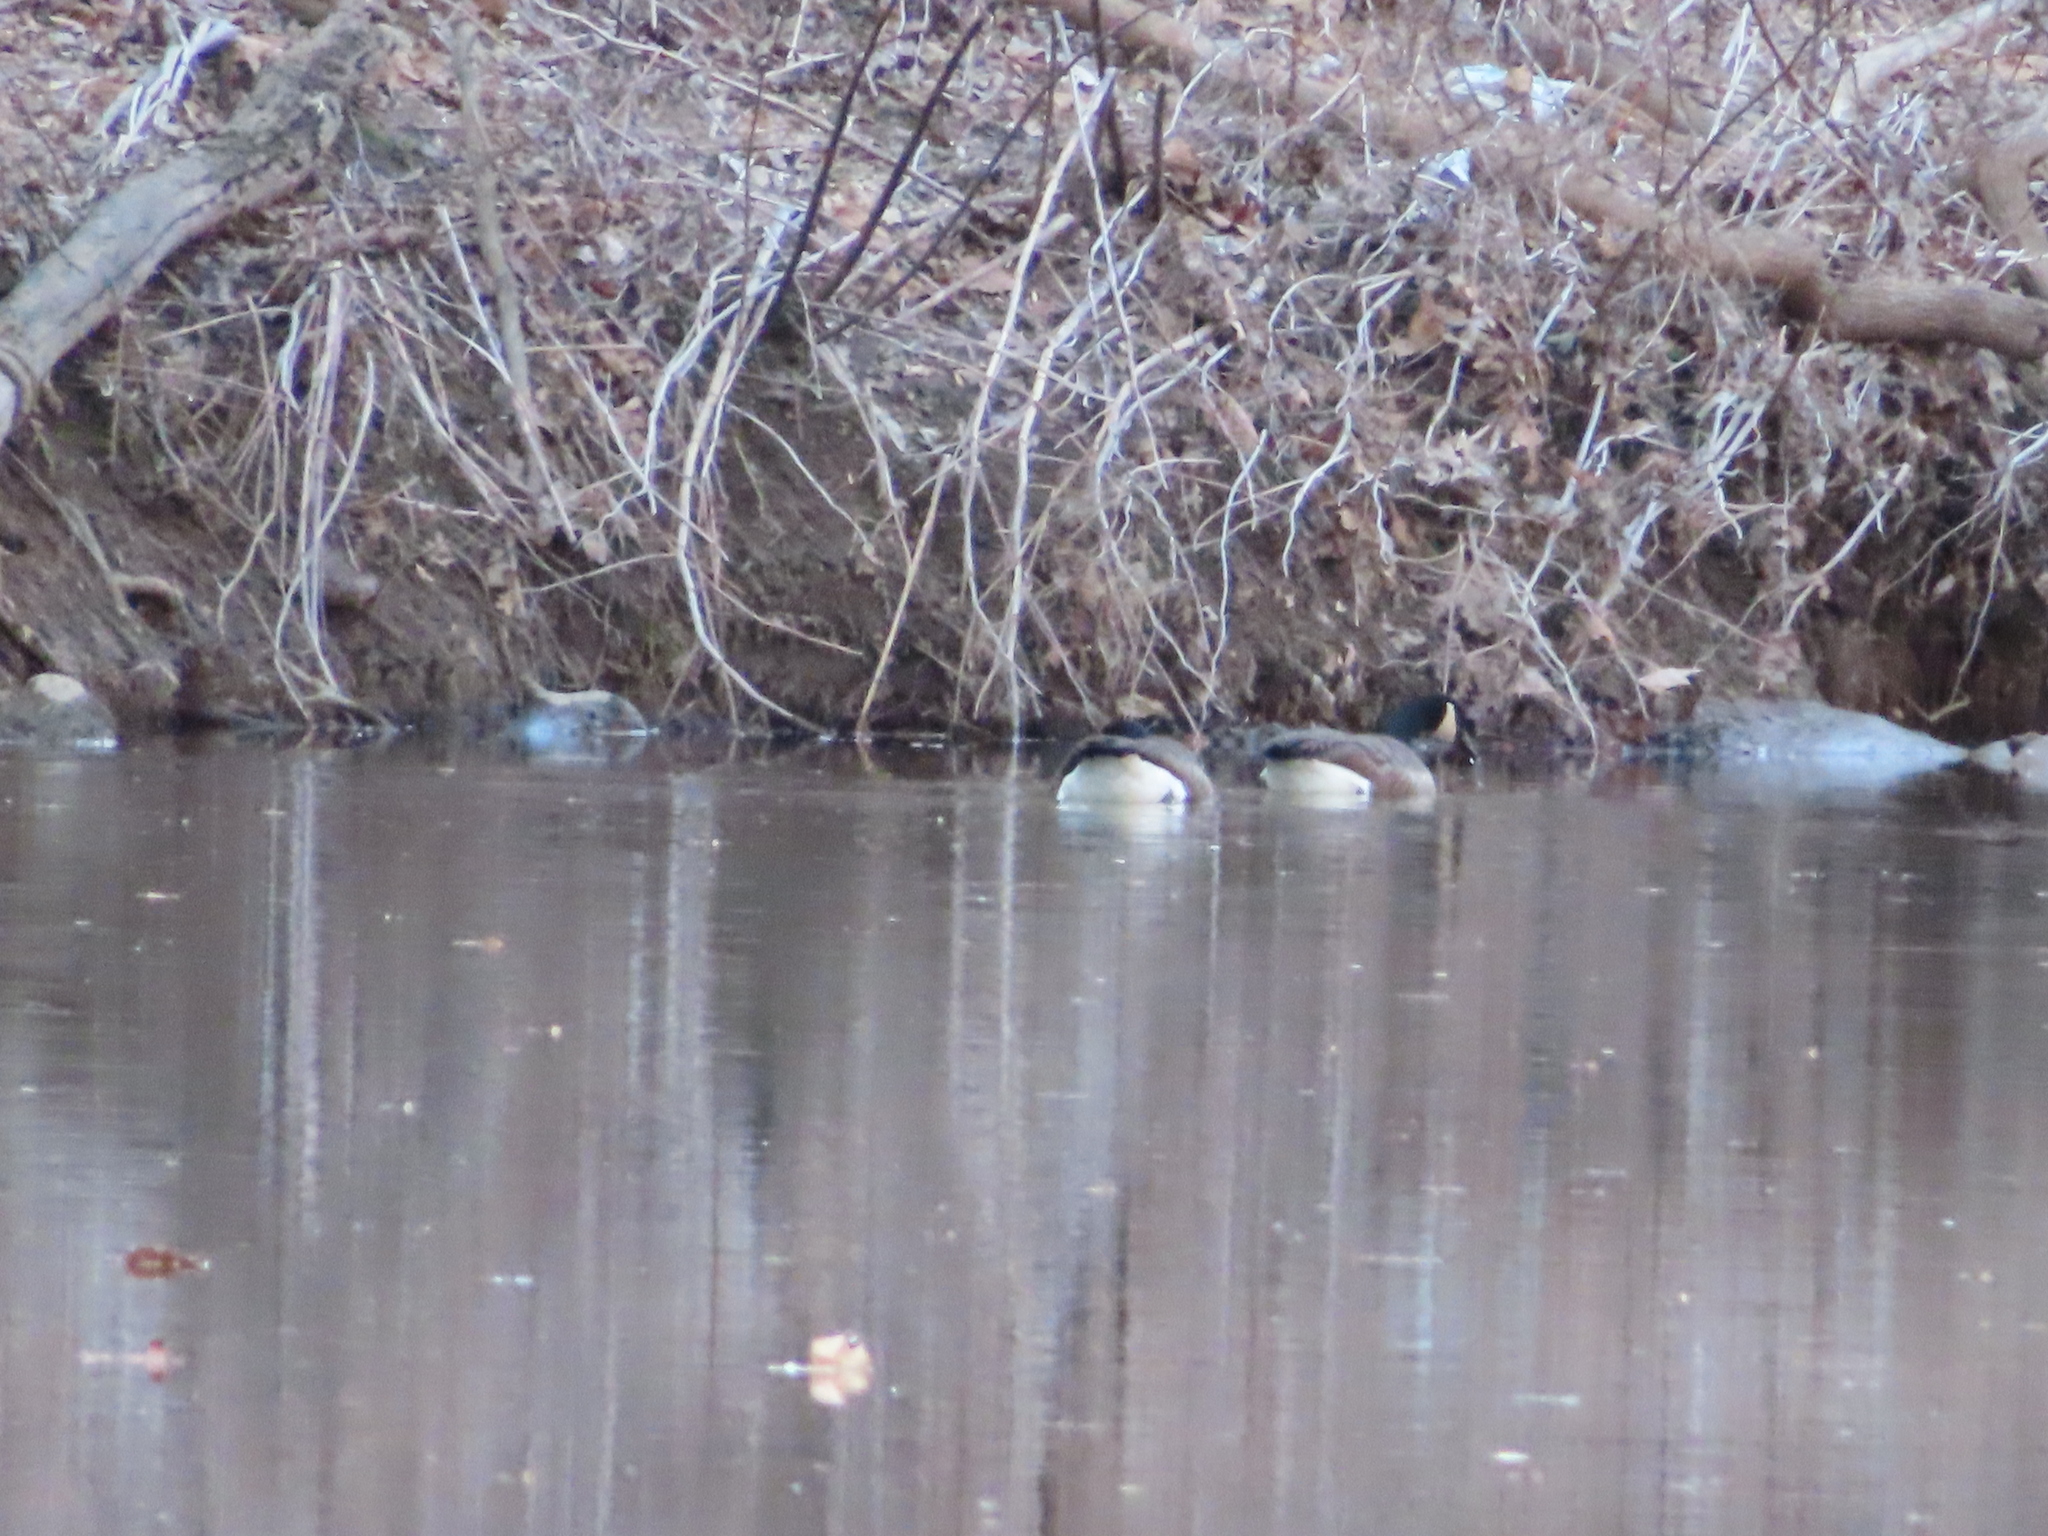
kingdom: Animalia
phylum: Chordata
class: Aves
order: Anseriformes
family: Anatidae
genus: Branta
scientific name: Branta canadensis
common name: Canada goose
